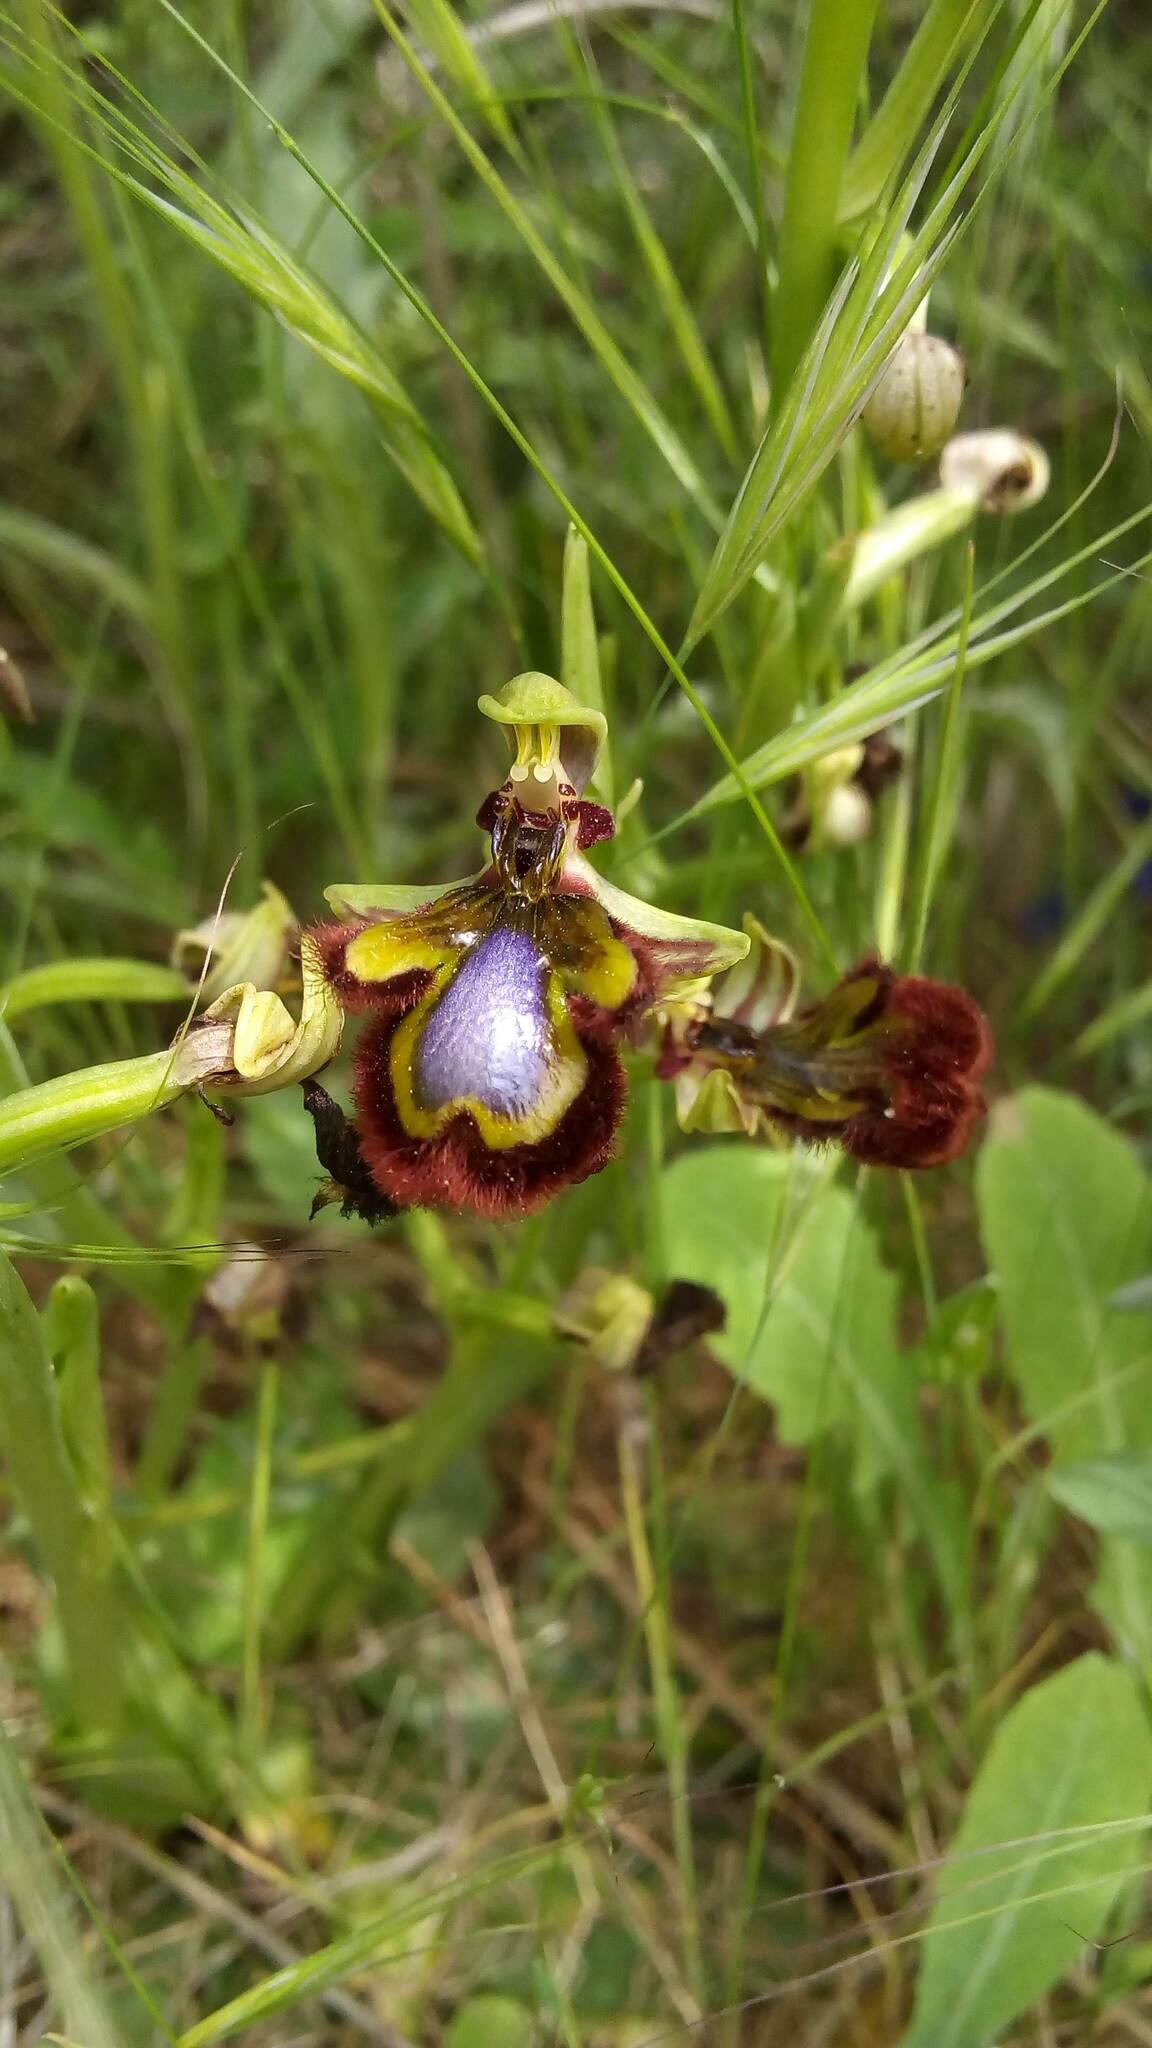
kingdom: Plantae
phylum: Tracheophyta
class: Liliopsida
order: Asparagales
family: Orchidaceae
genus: Ophrys
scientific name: Ophrys speculum
